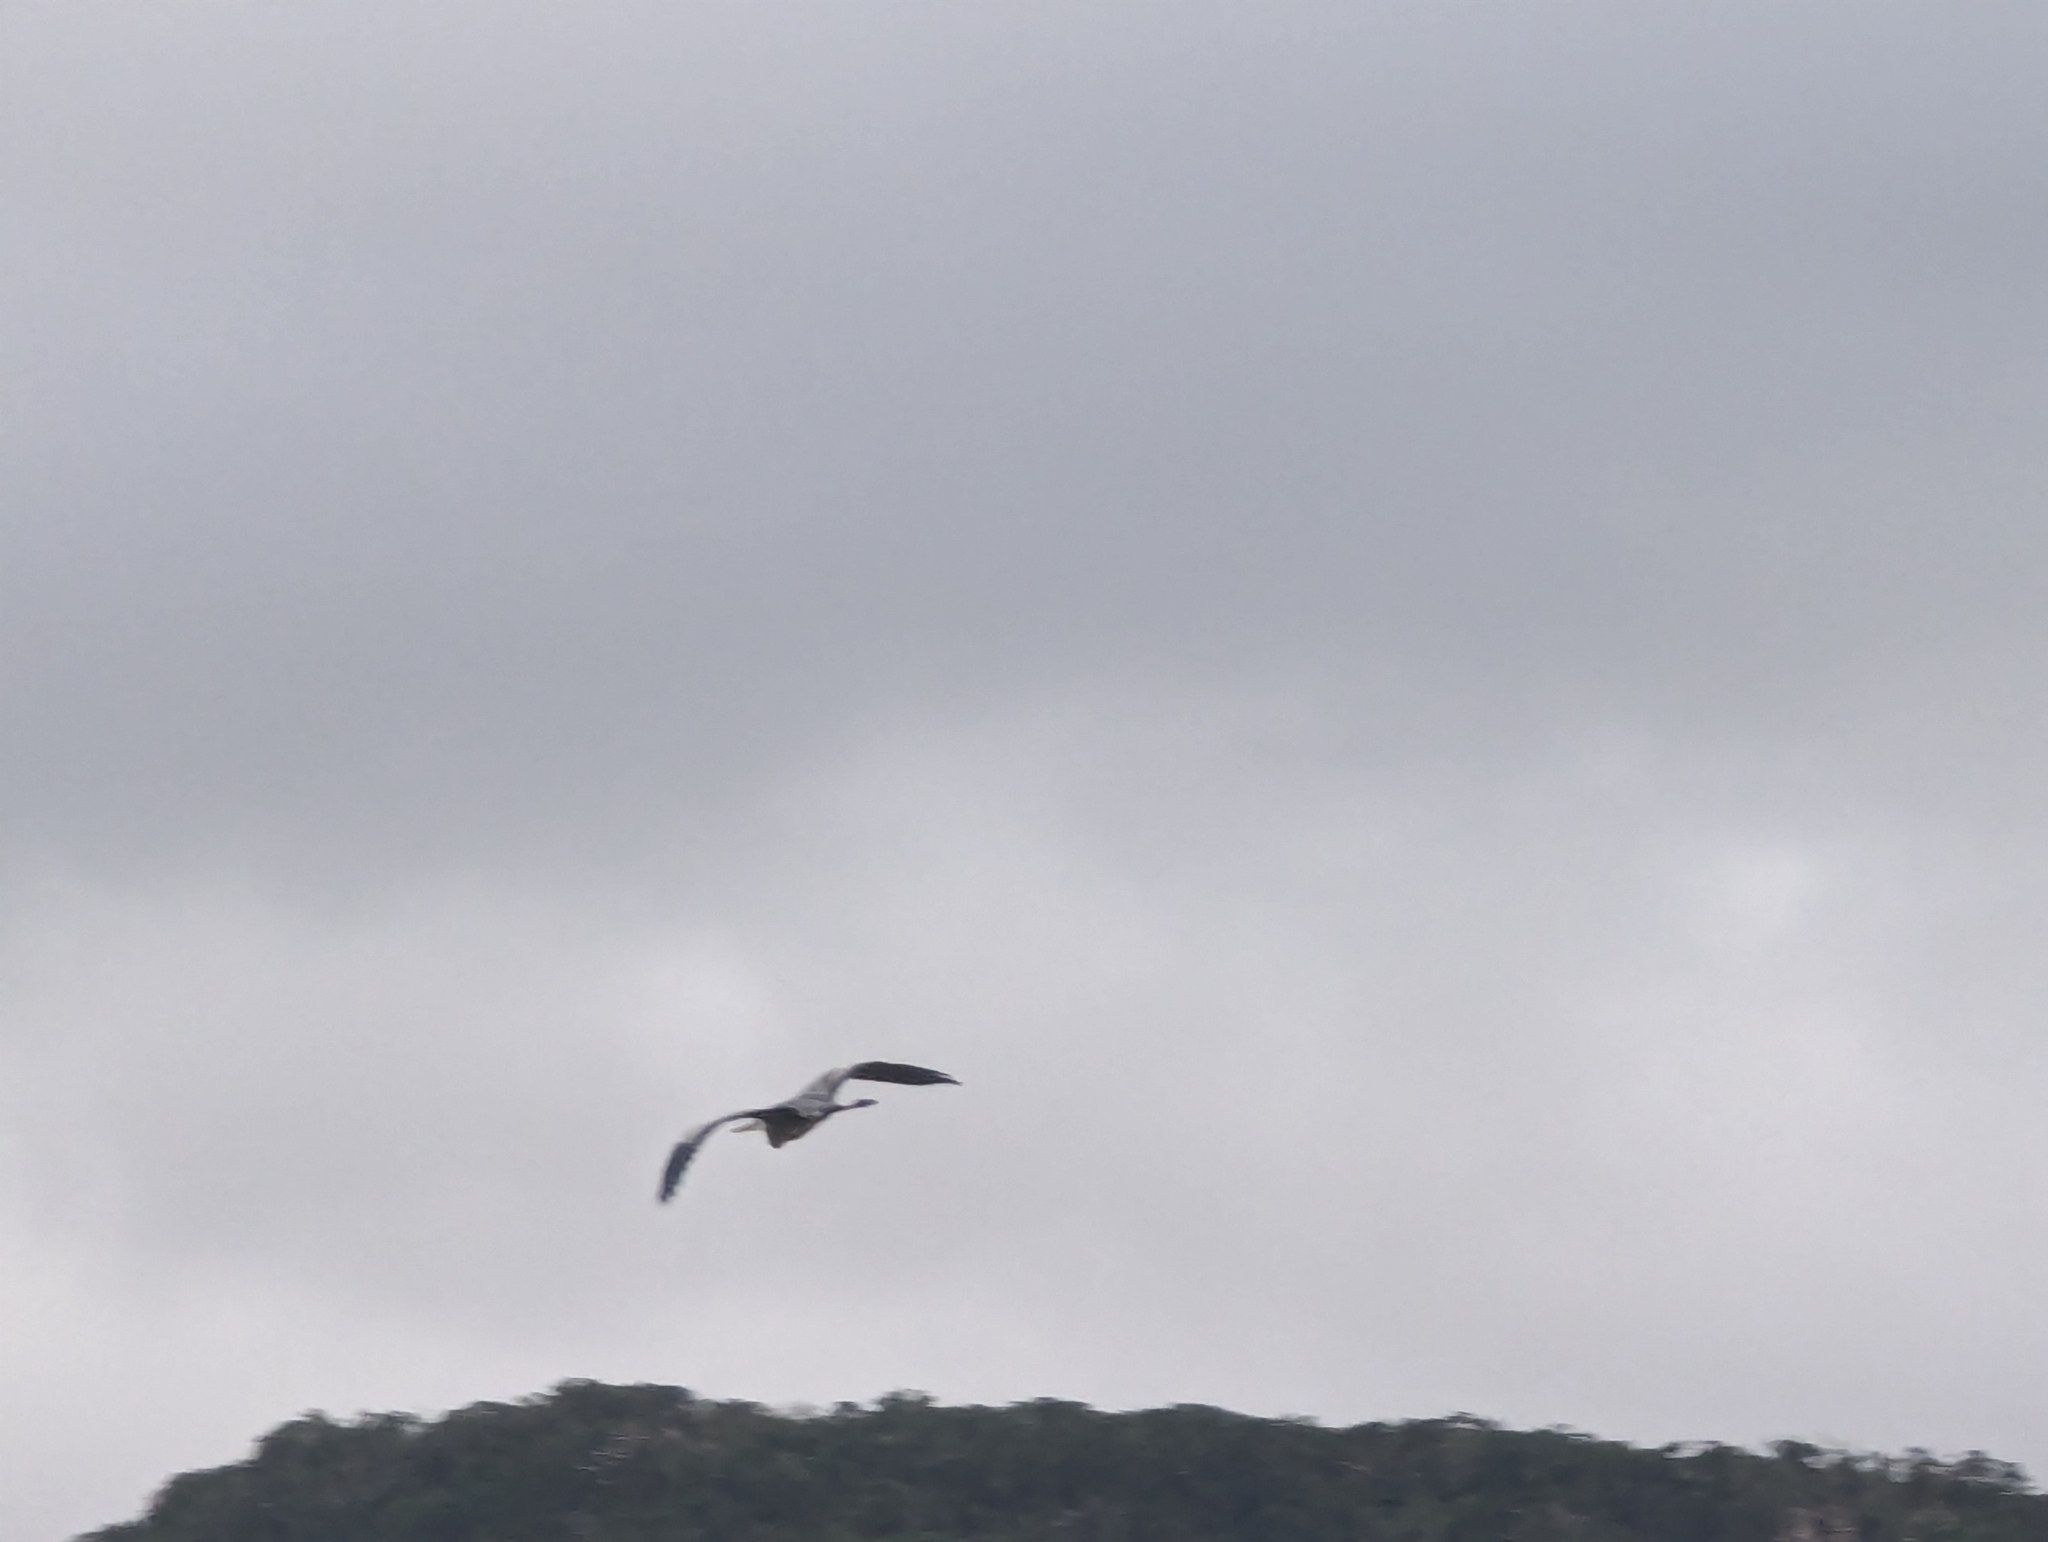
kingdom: Animalia
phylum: Chordata
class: Aves
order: Pelecaniformes
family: Ardeidae
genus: Ardea
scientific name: Ardea cinerea
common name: Grey heron
